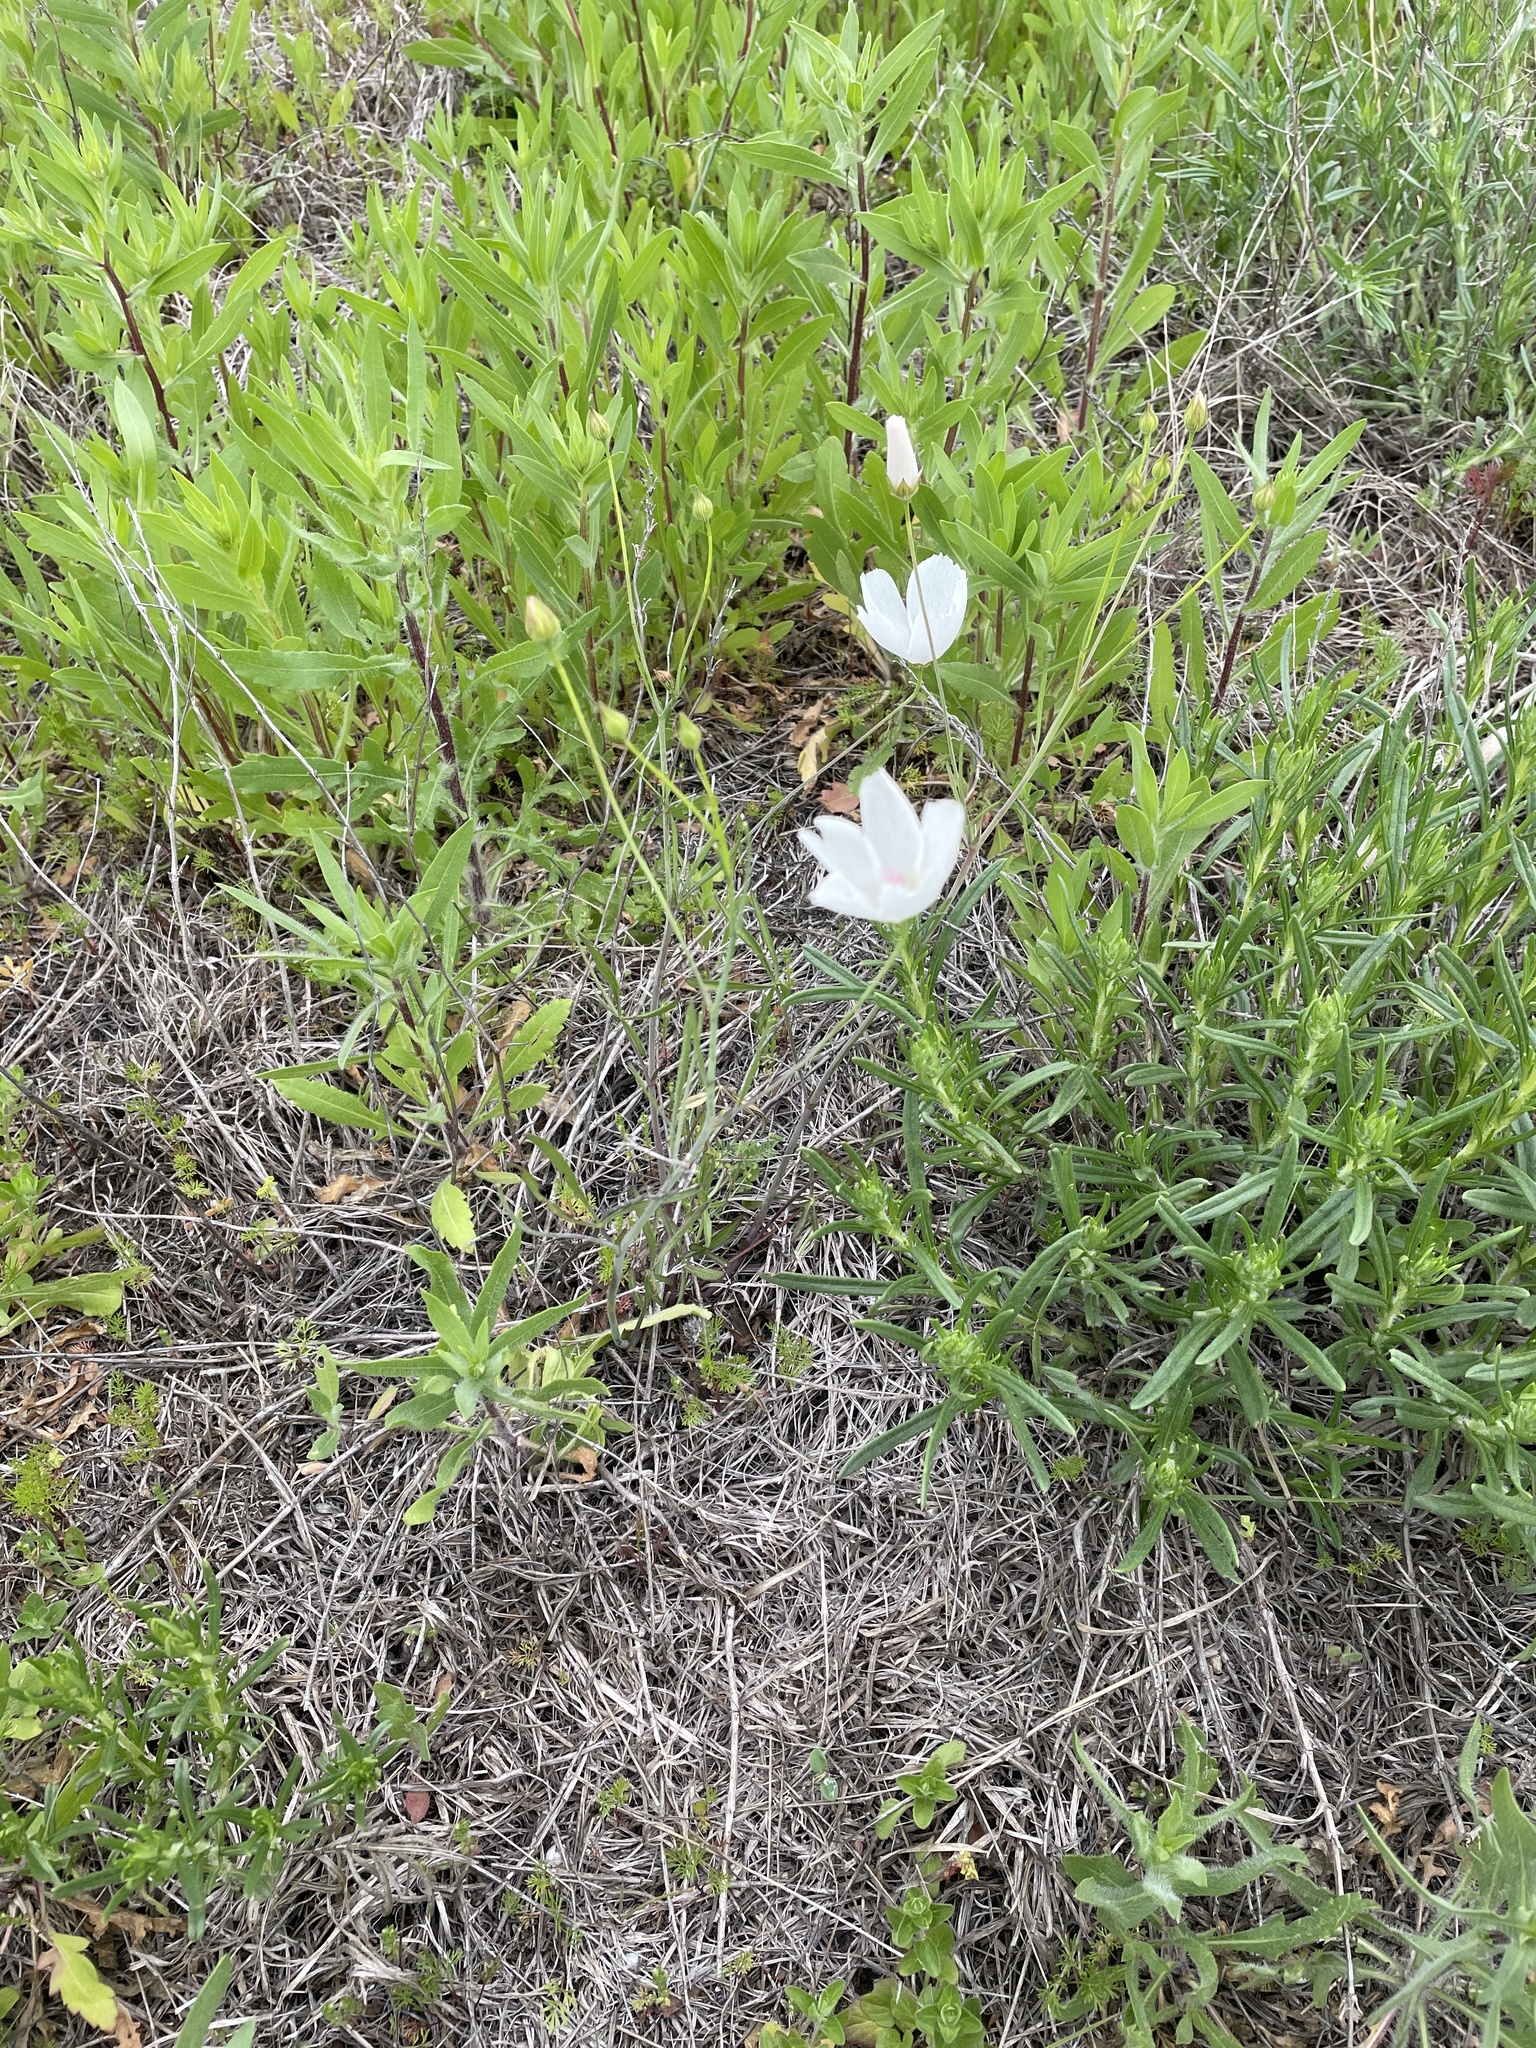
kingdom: Plantae
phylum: Tracheophyta
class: Magnoliopsida
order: Malvales
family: Malvaceae
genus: Callirhoe
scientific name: Callirhoe pedata
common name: Finger poppy-mallow
